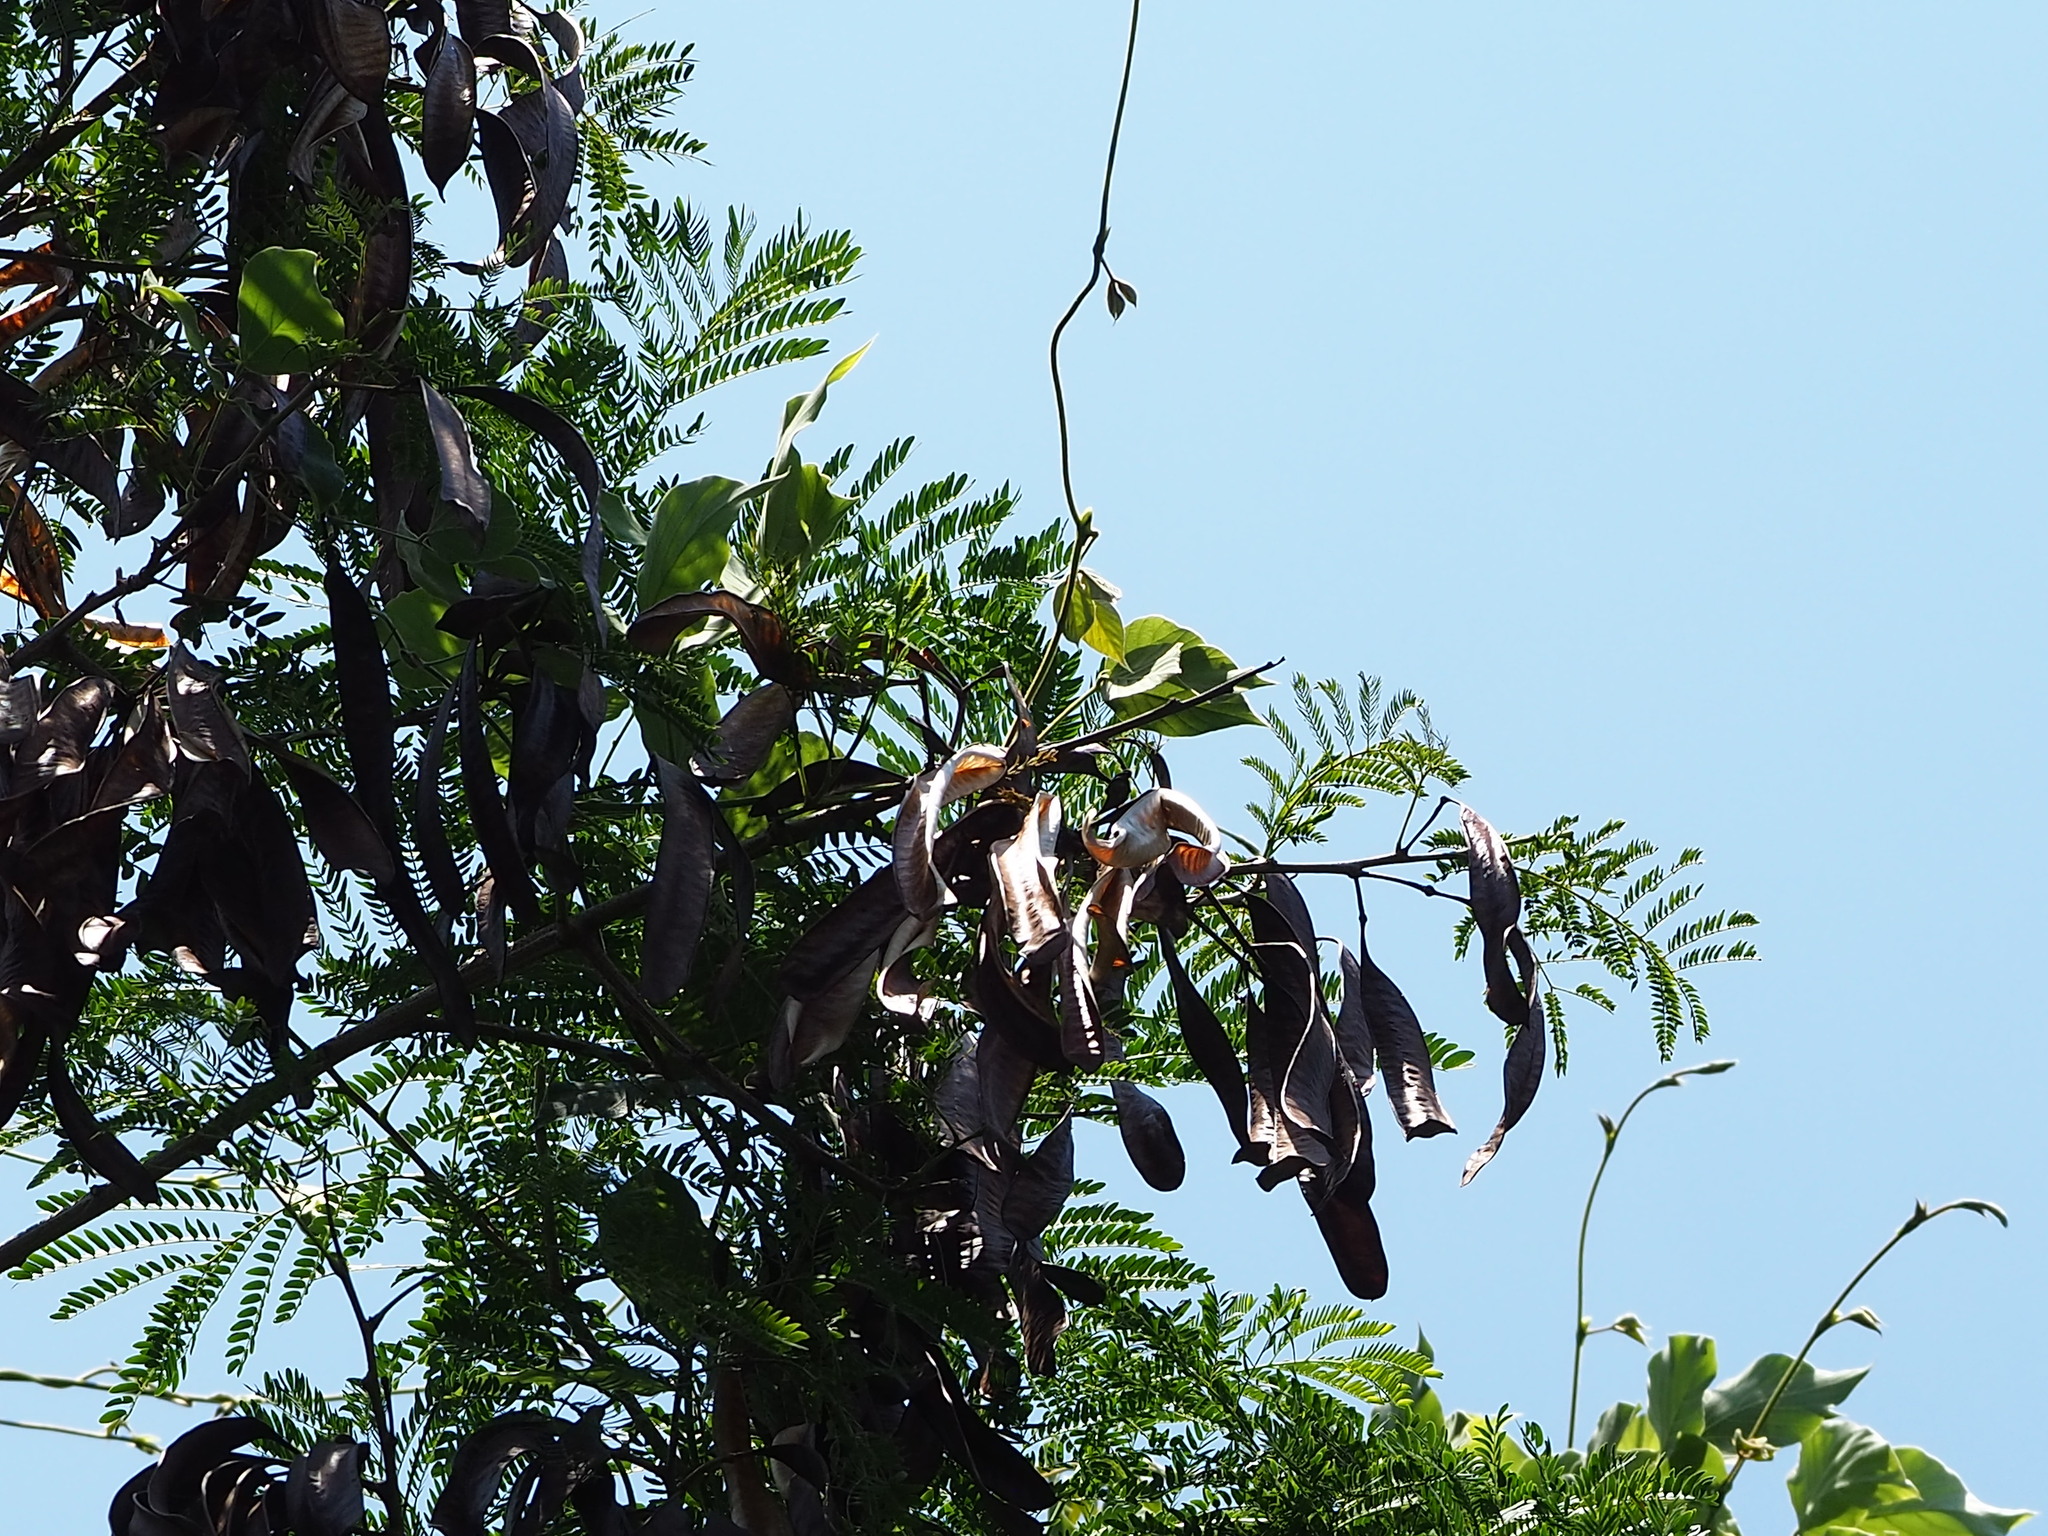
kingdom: Plantae
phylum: Tracheophyta
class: Magnoliopsida
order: Fabales
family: Fabaceae
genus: Leucaena
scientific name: Leucaena leucocephala
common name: White leadtree
